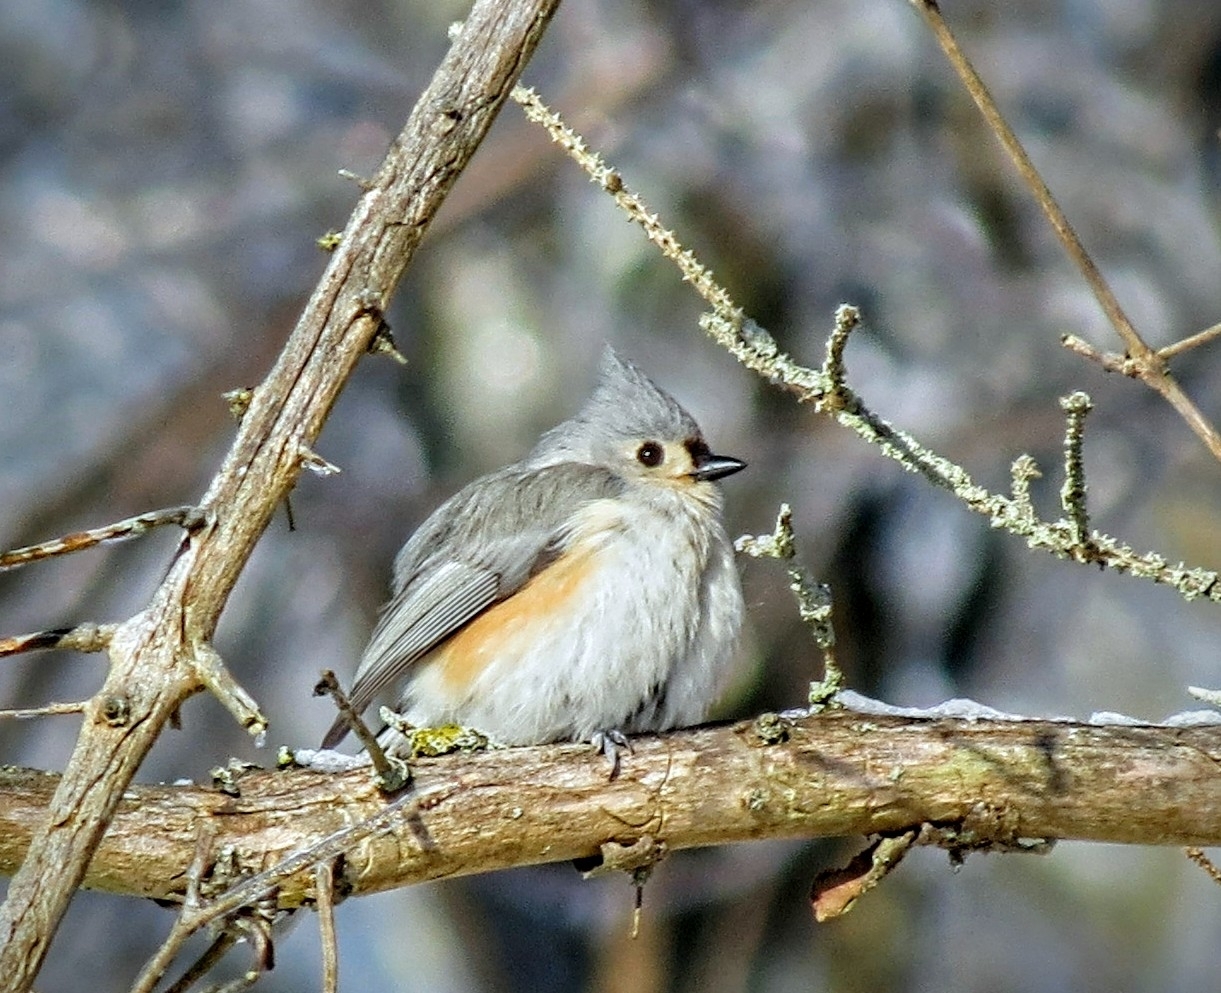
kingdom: Animalia
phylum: Chordata
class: Aves
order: Passeriformes
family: Paridae
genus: Baeolophus
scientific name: Baeolophus bicolor
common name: Tufted titmouse
